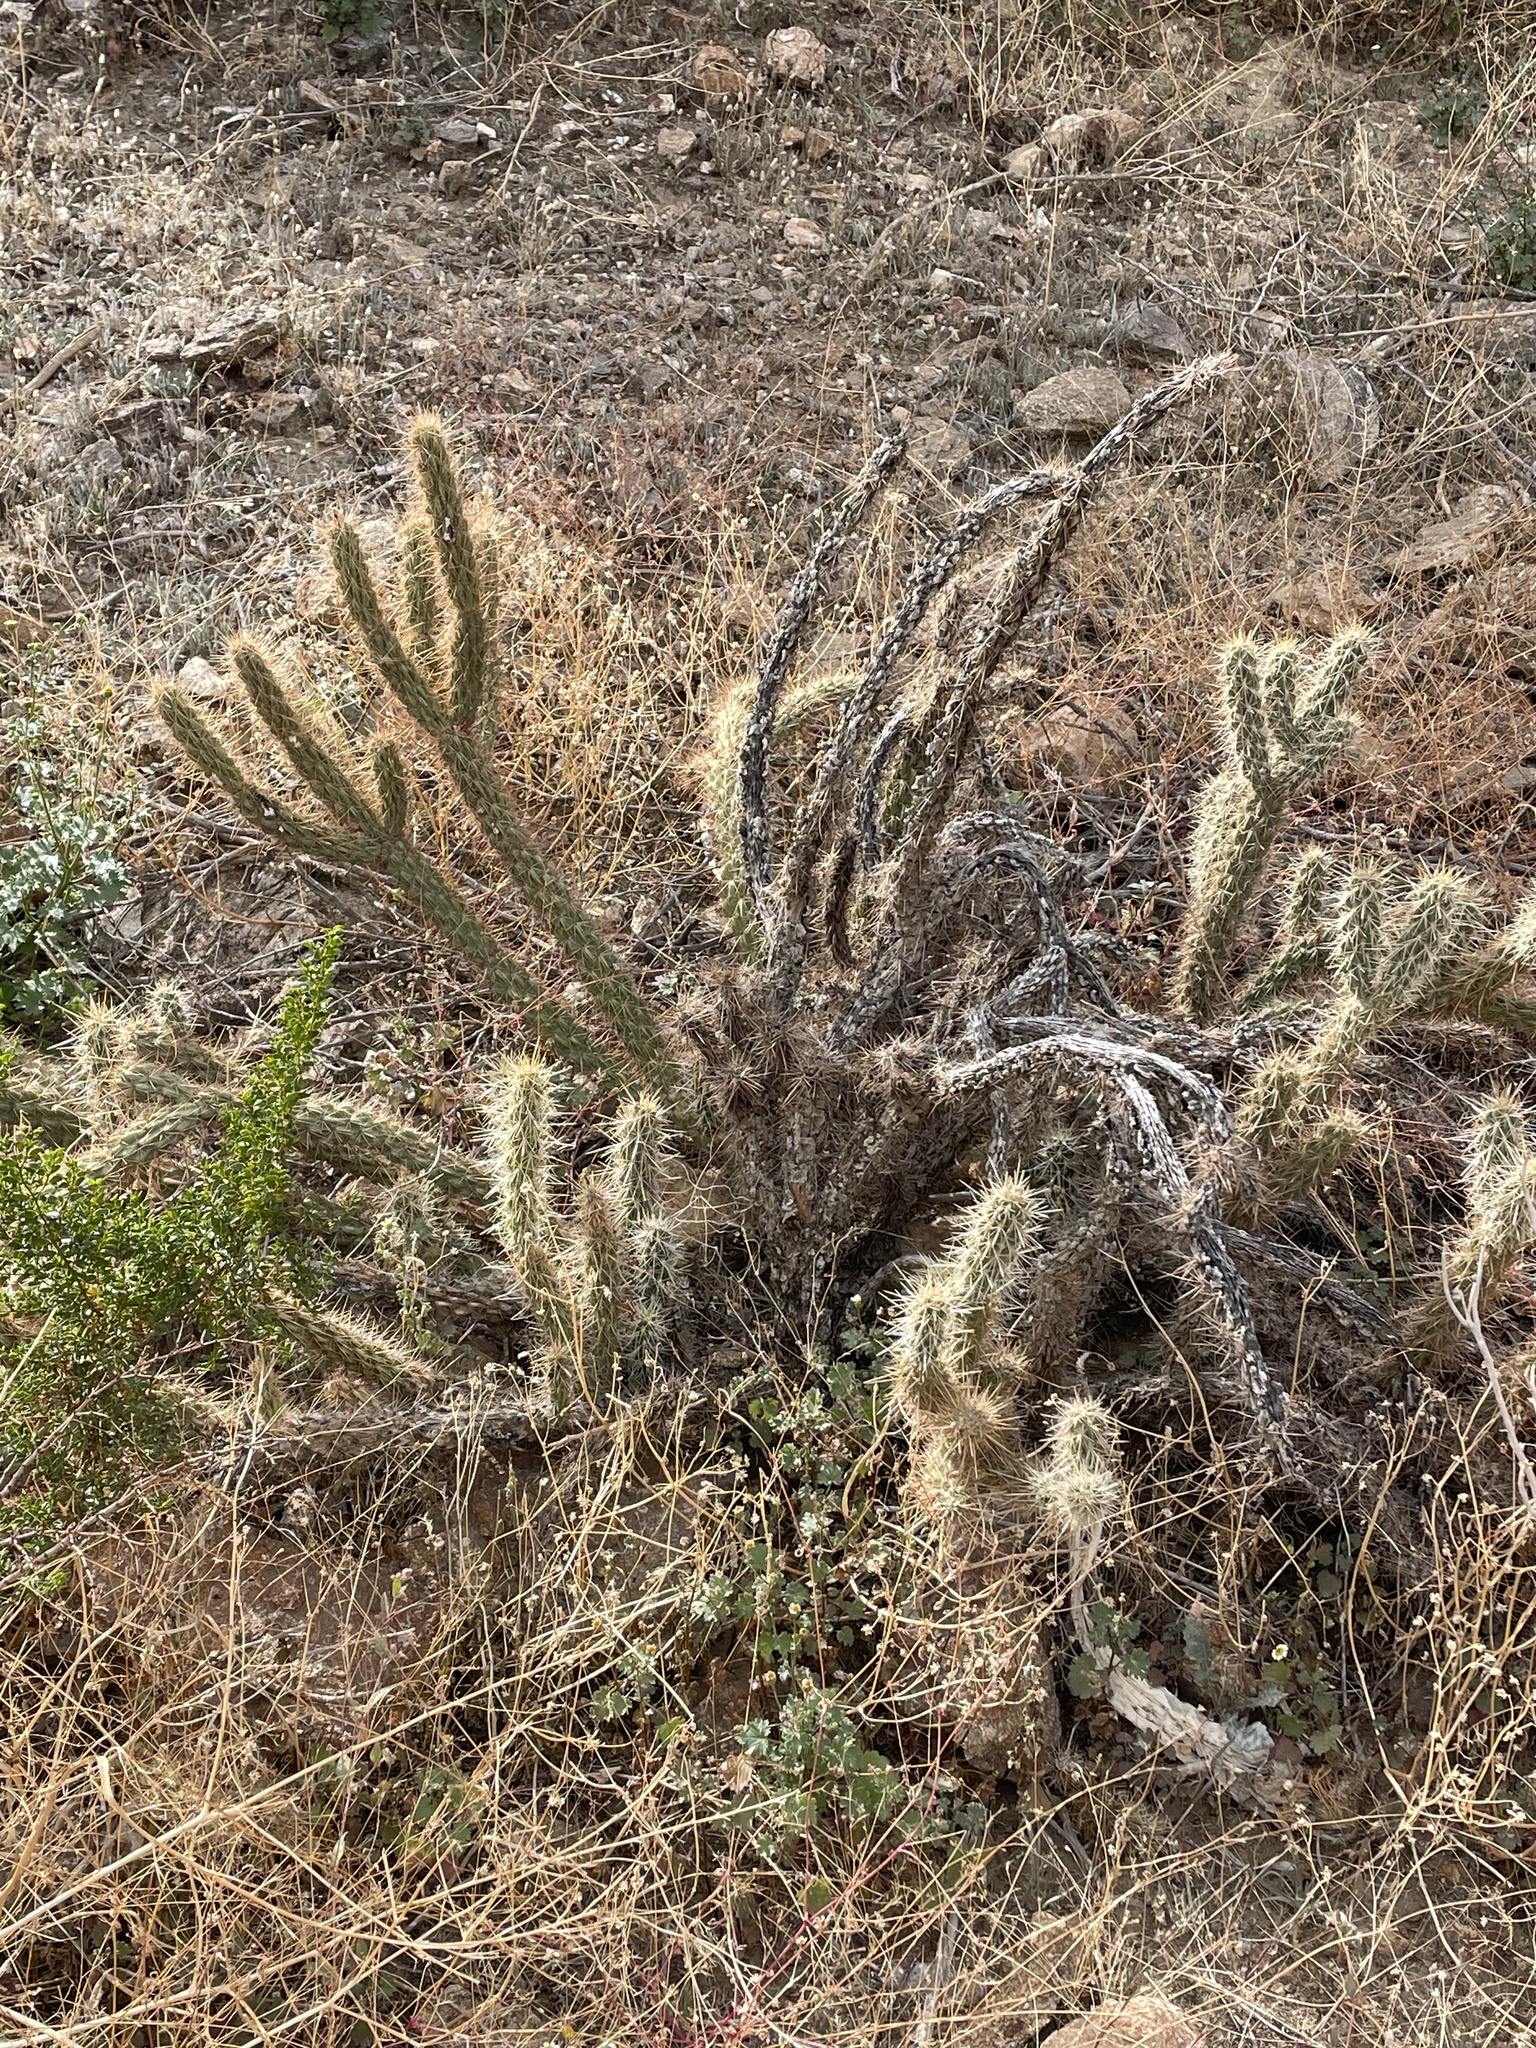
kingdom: Plantae
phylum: Tracheophyta
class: Magnoliopsida
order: Caryophyllales
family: Cactaceae
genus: Cylindropuntia
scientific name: Cylindropuntia ganderi
